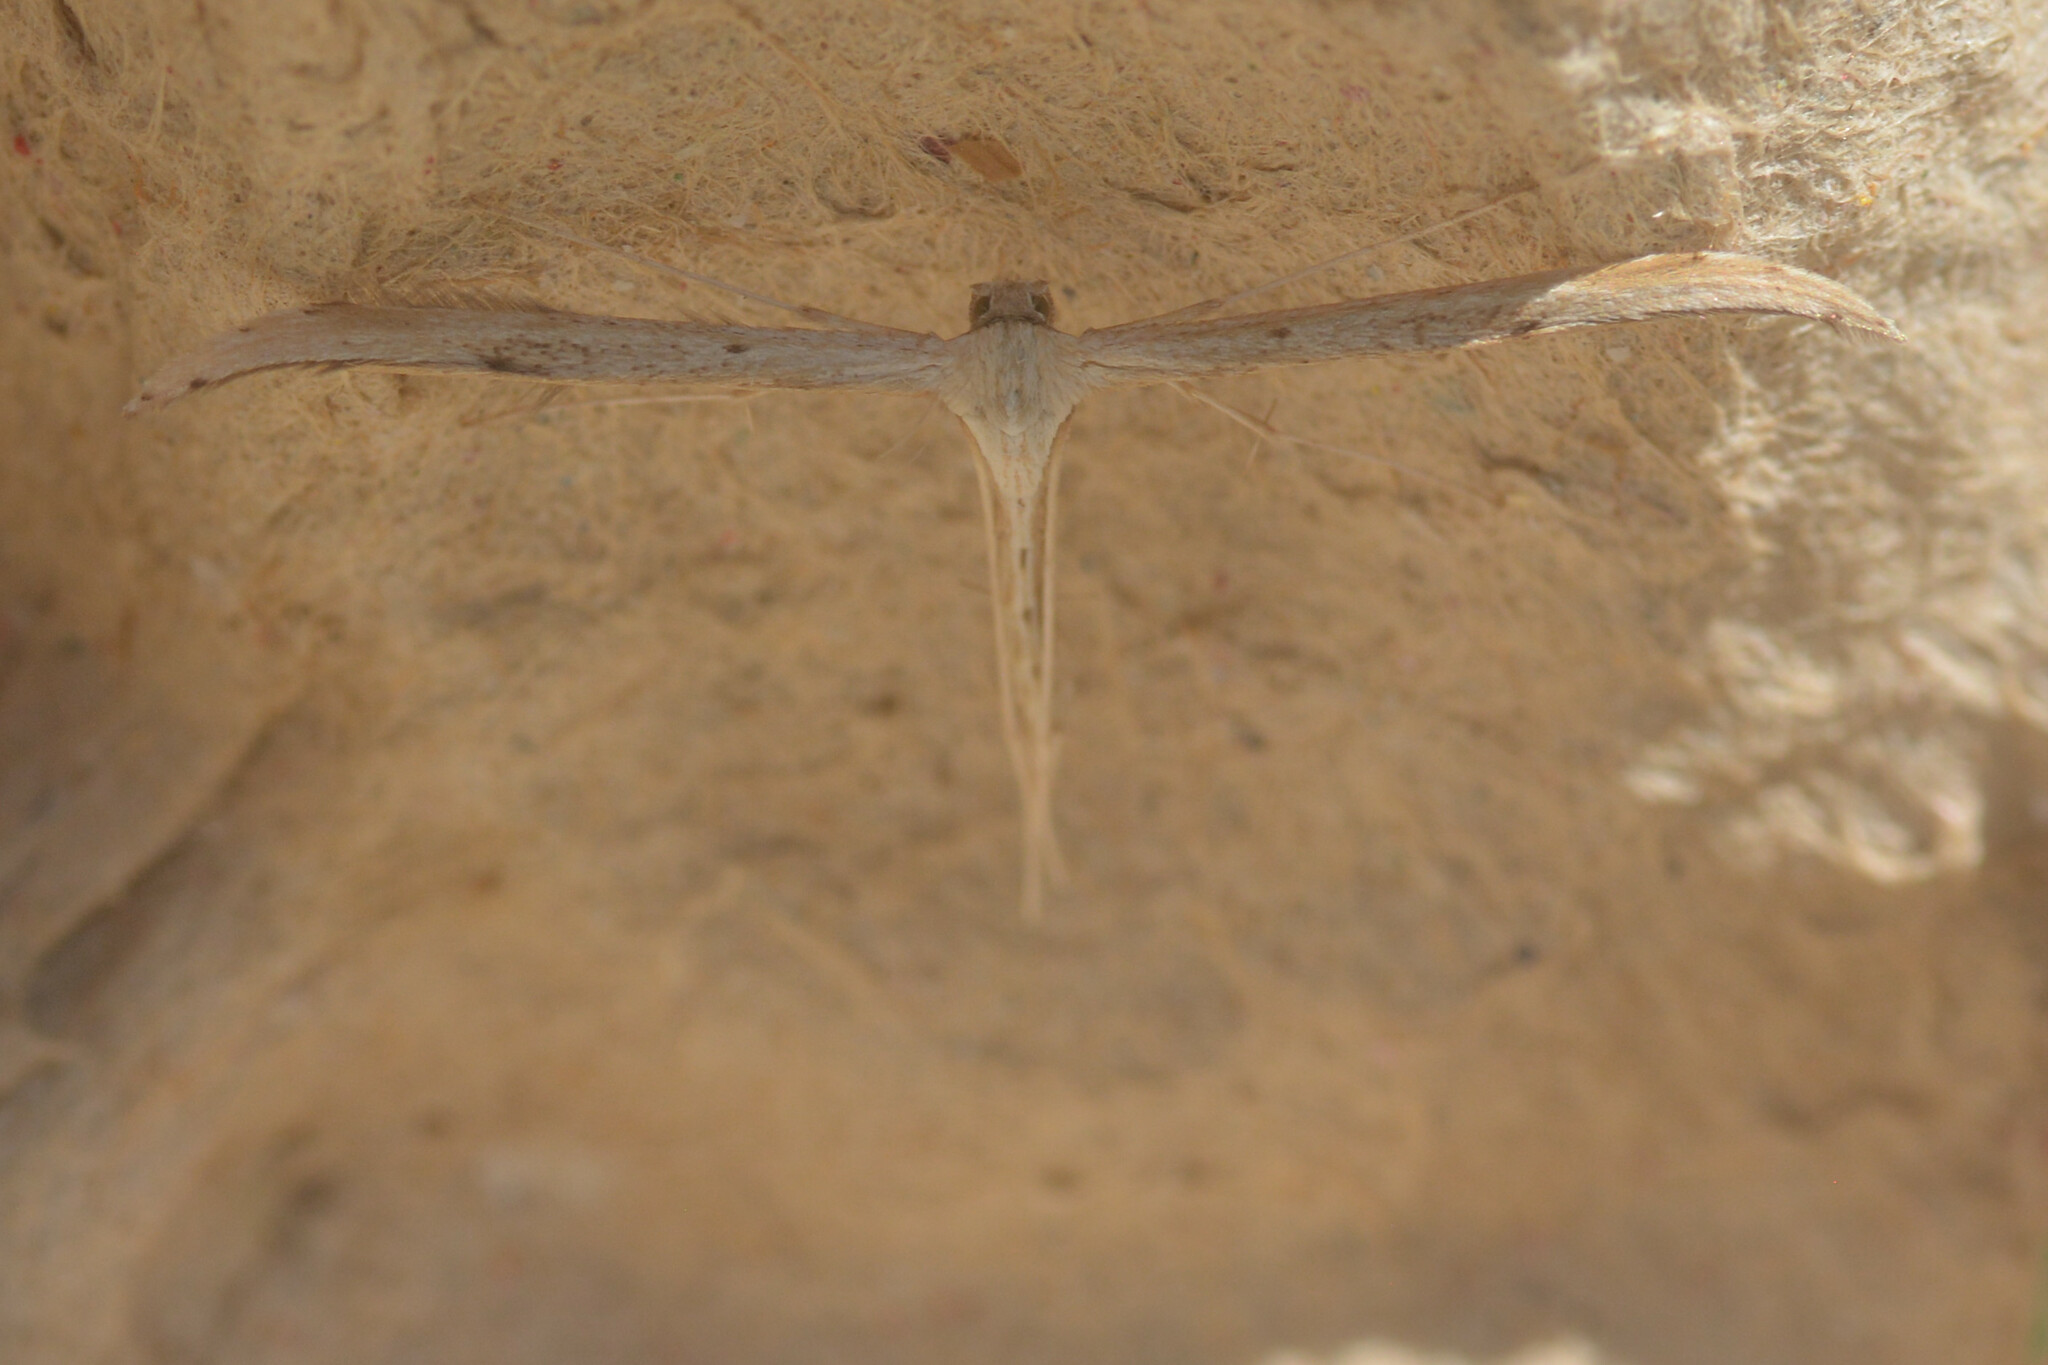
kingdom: Animalia
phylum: Arthropoda
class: Insecta
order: Lepidoptera
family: Pterophoridae
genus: Emmelina
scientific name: Emmelina monodactyla
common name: Common plume
